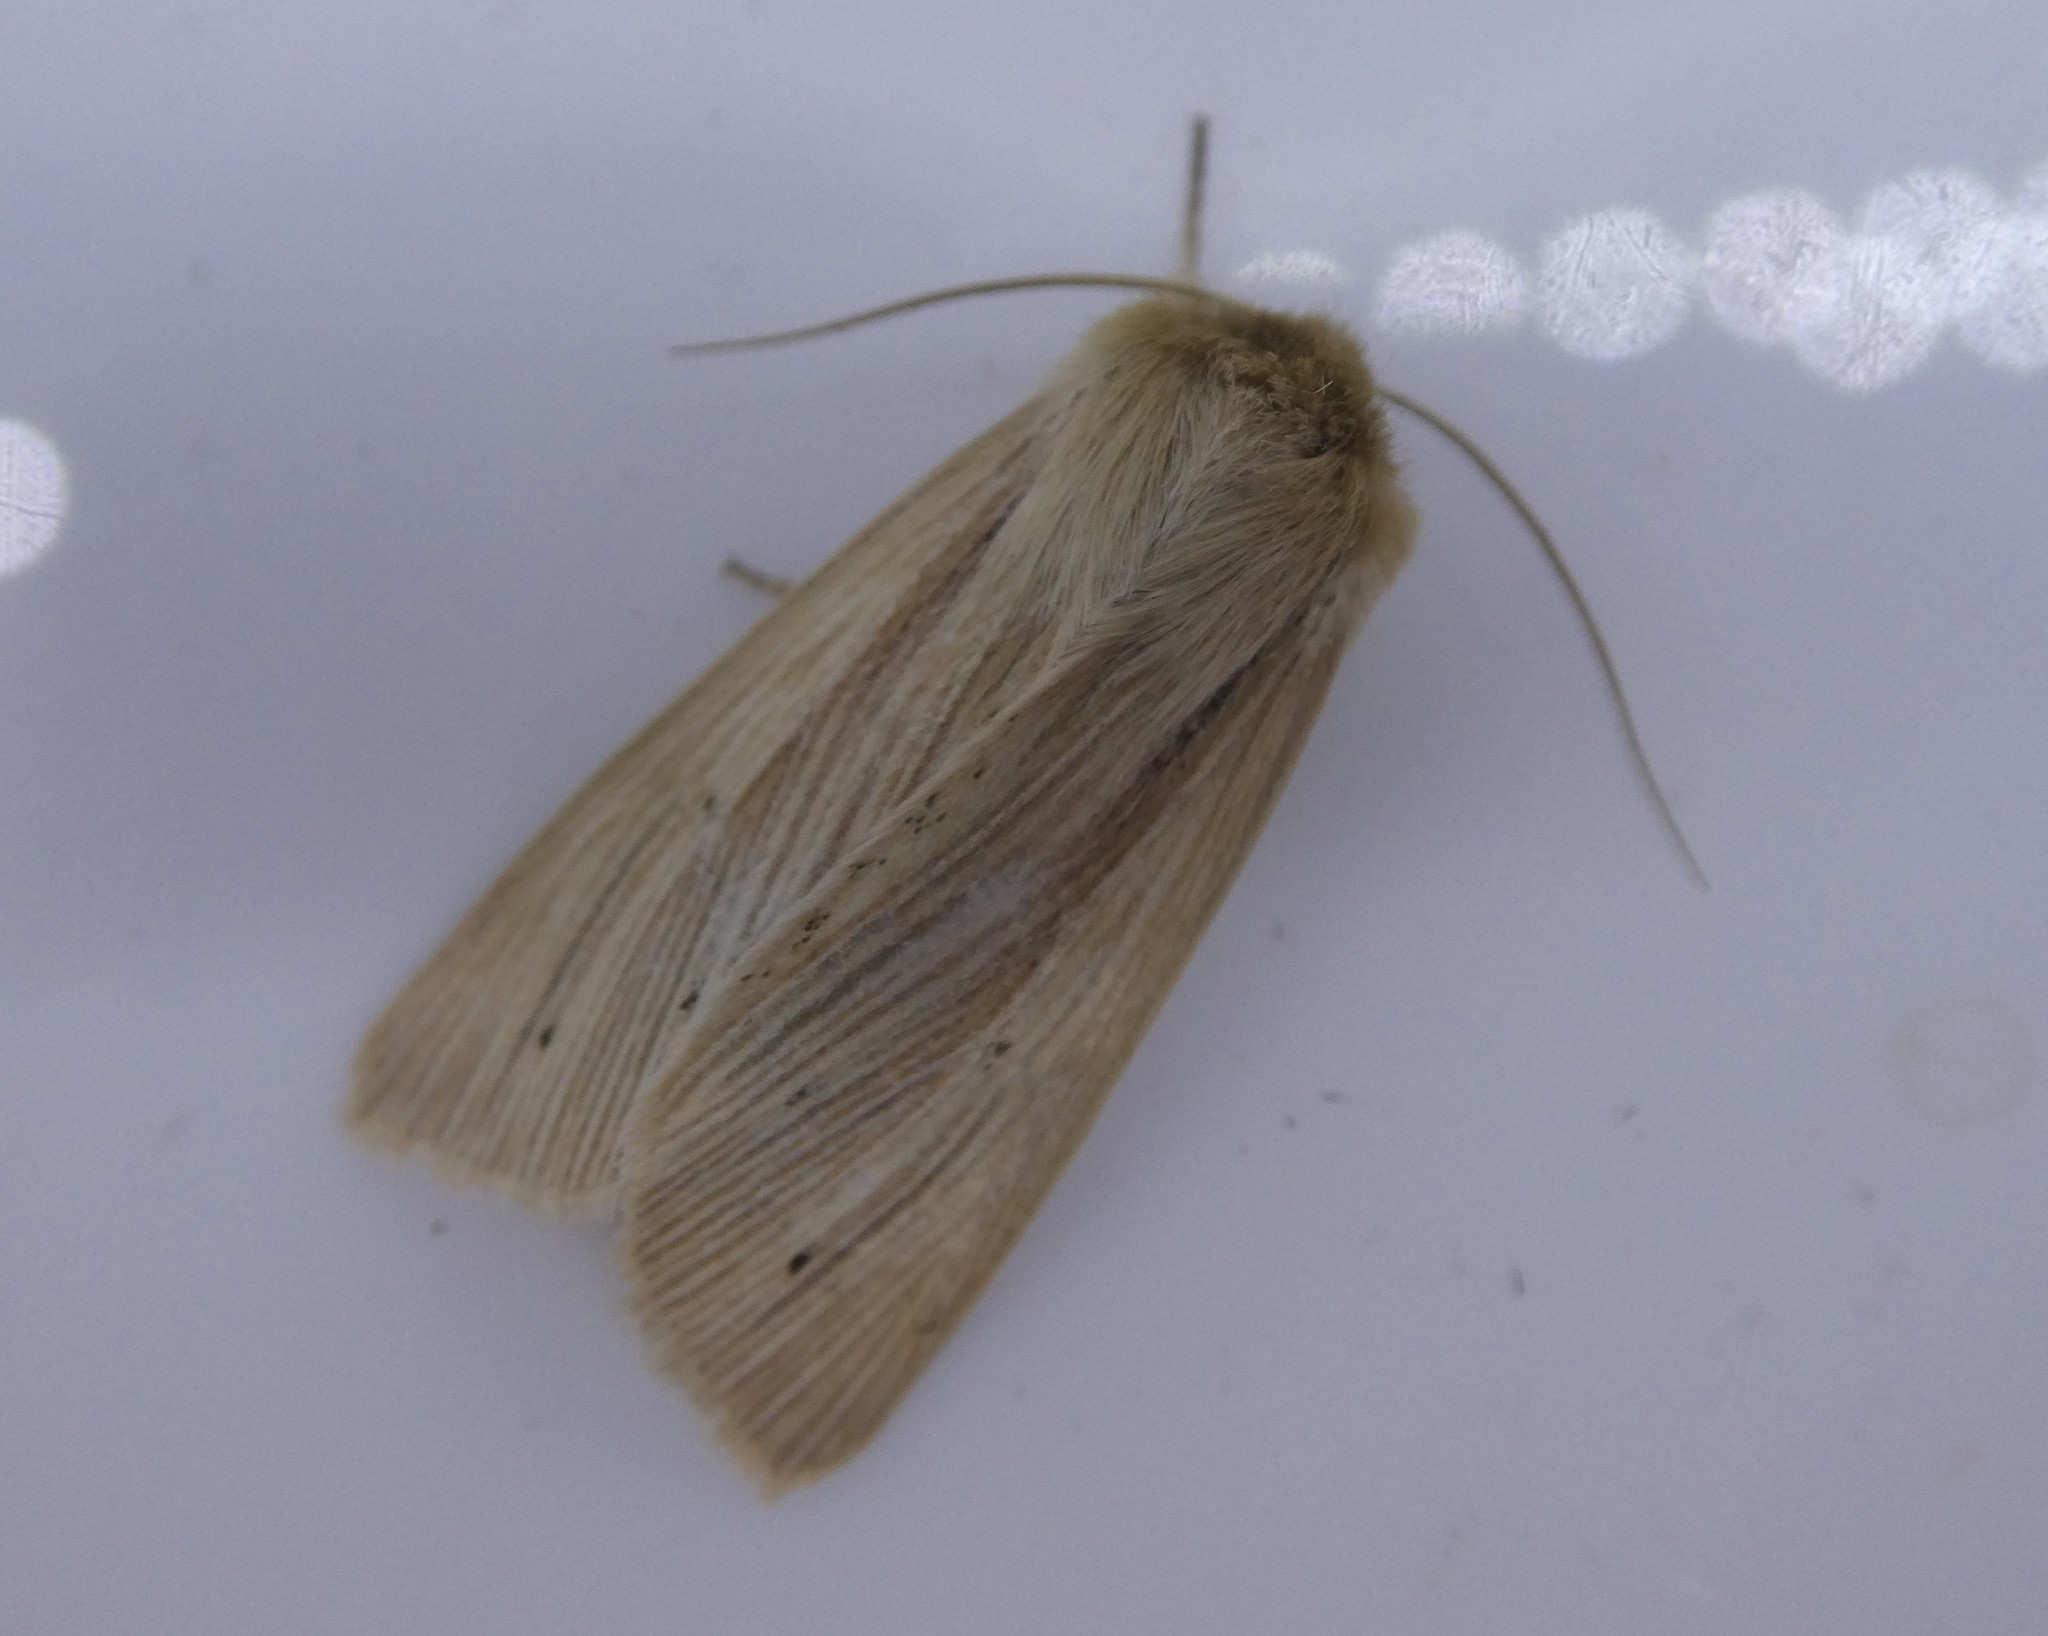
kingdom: Animalia
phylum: Arthropoda
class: Insecta
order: Lepidoptera
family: Noctuidae
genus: Mythimna
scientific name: Mythimna oxygala
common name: Lesser wainscot
